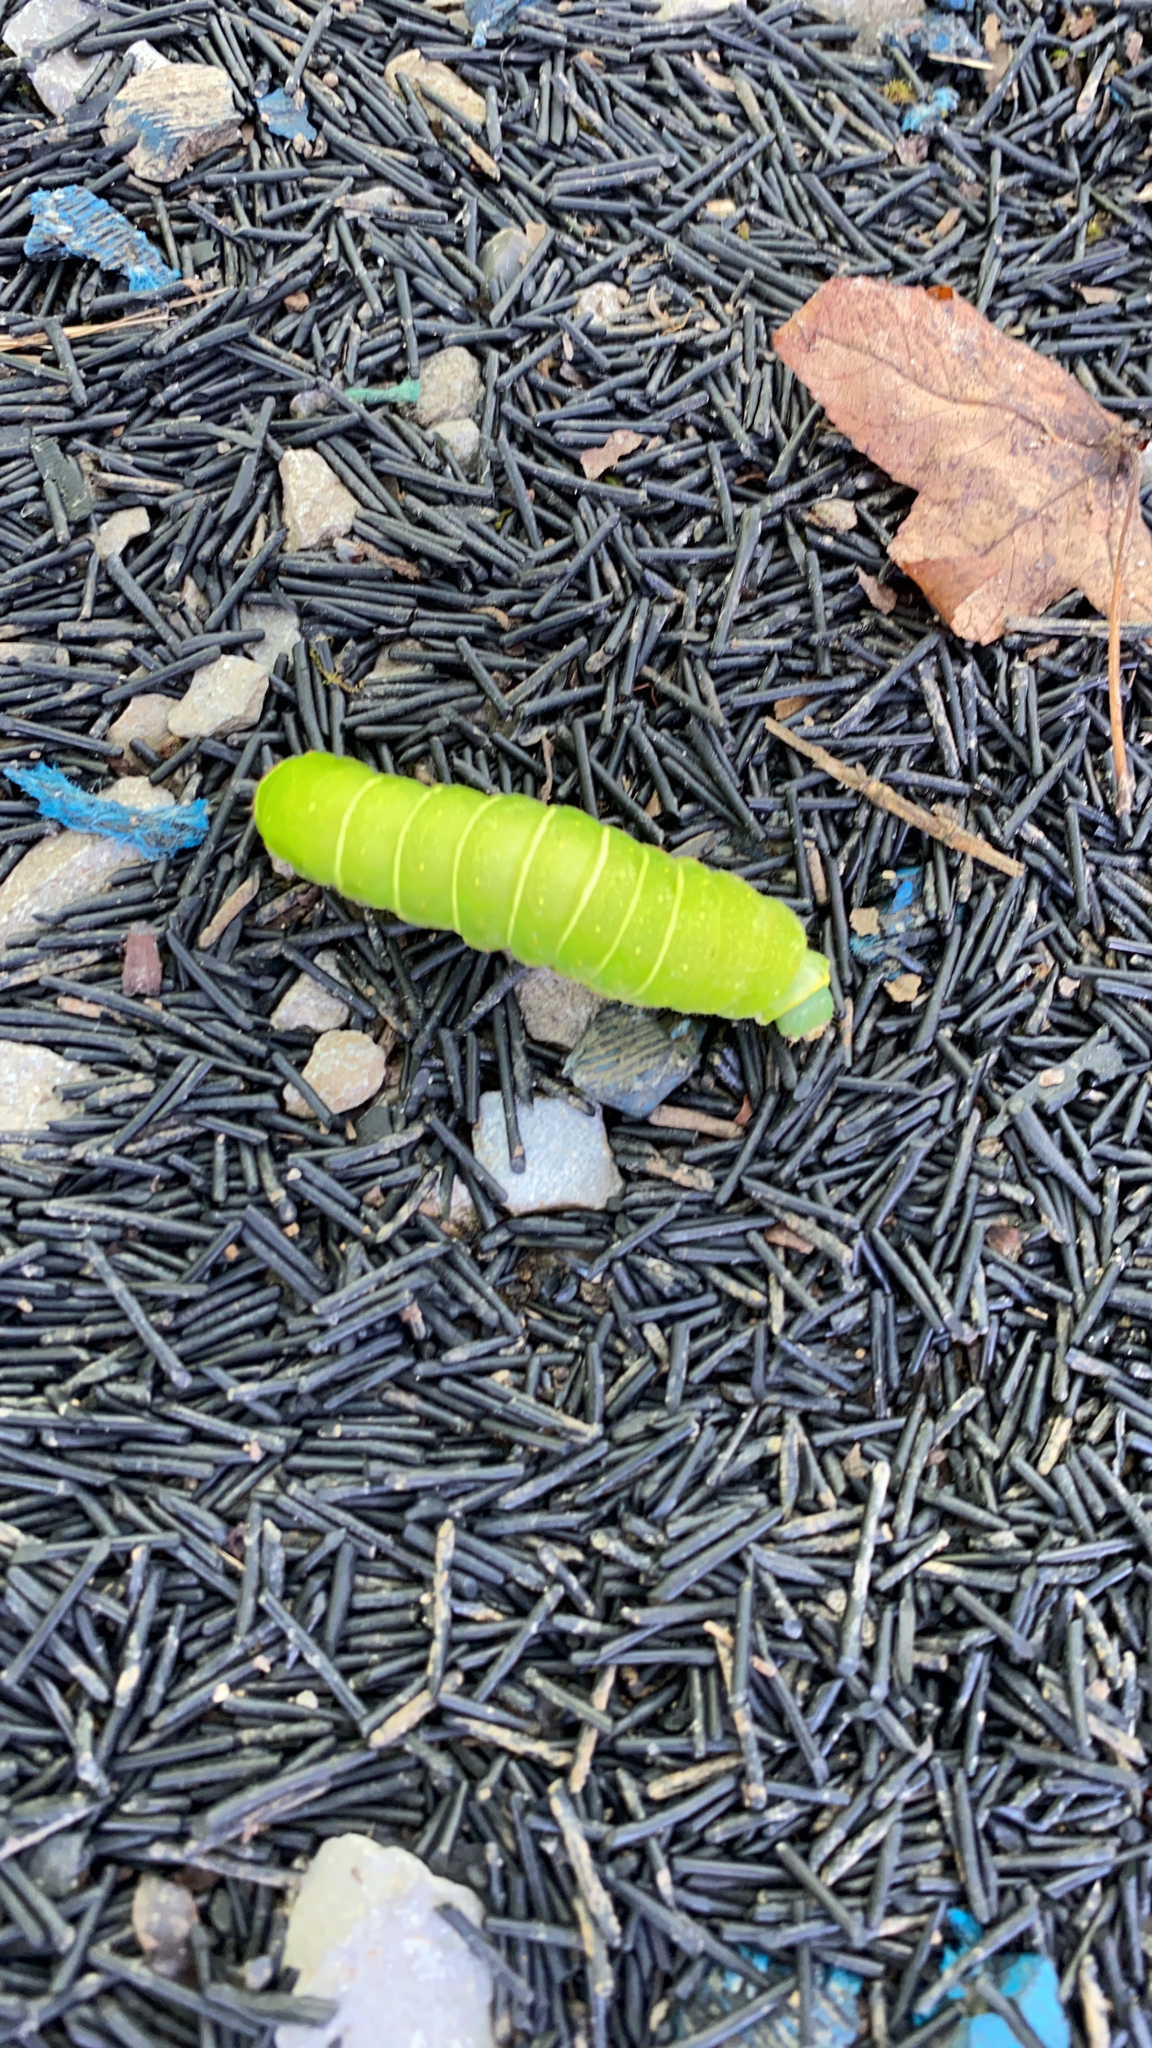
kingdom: Animalia
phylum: Arthropoda
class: Insecta
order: Lepidoptera
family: Saturniidae
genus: Actias
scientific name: Actias luna
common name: Luna moth
